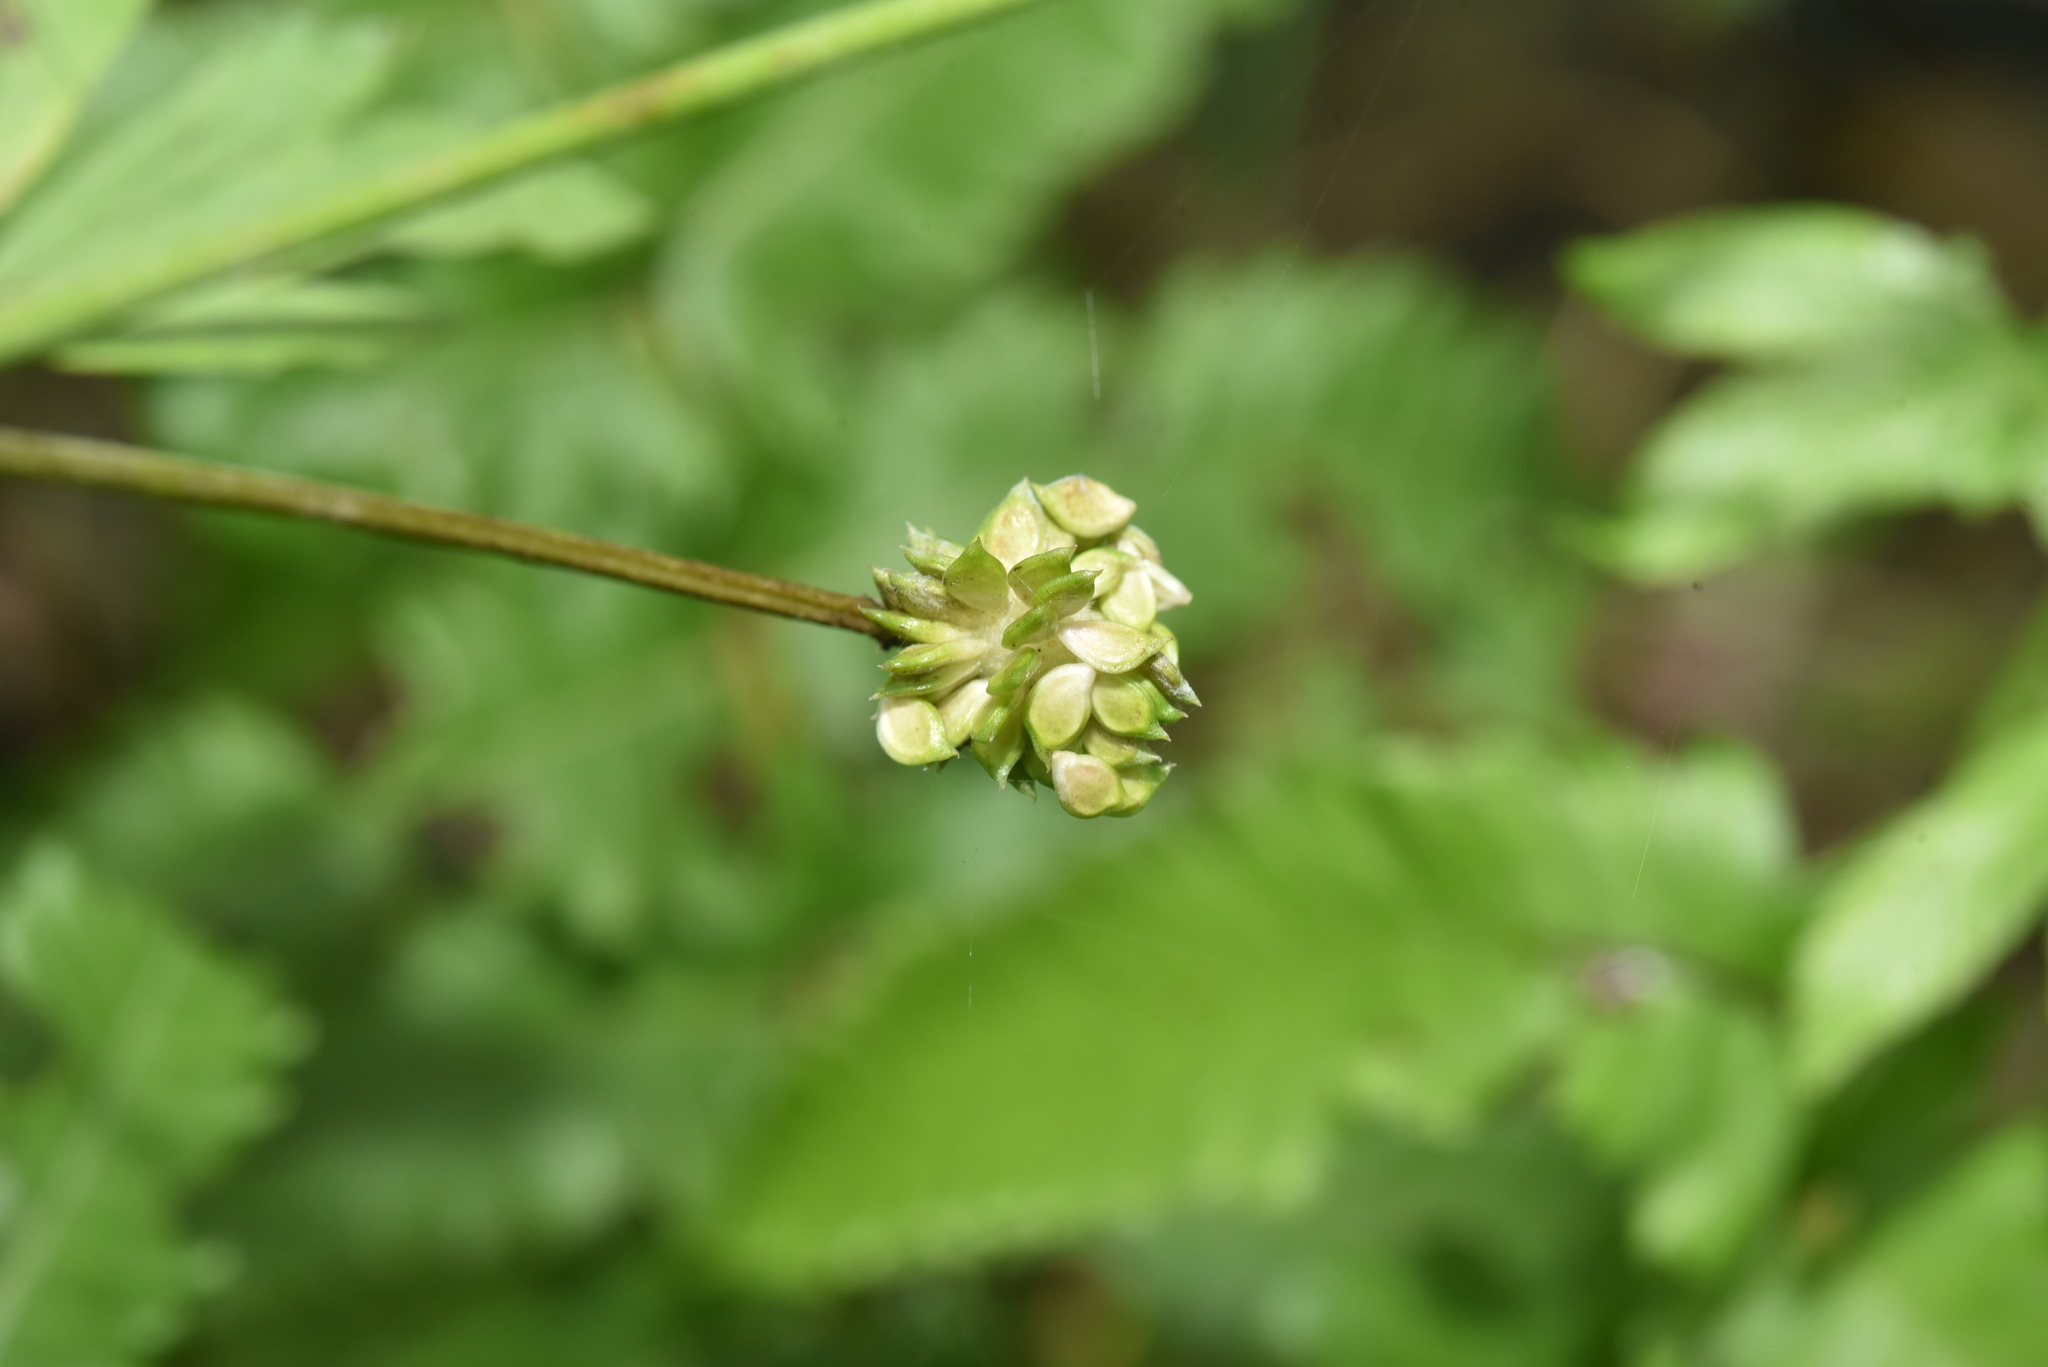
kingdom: Plantae
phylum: Tracheophyta
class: Magnoliopsida
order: Ranunculales
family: Ranunculaceae
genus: Ranunculus
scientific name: Ranunculus cantoniensis
